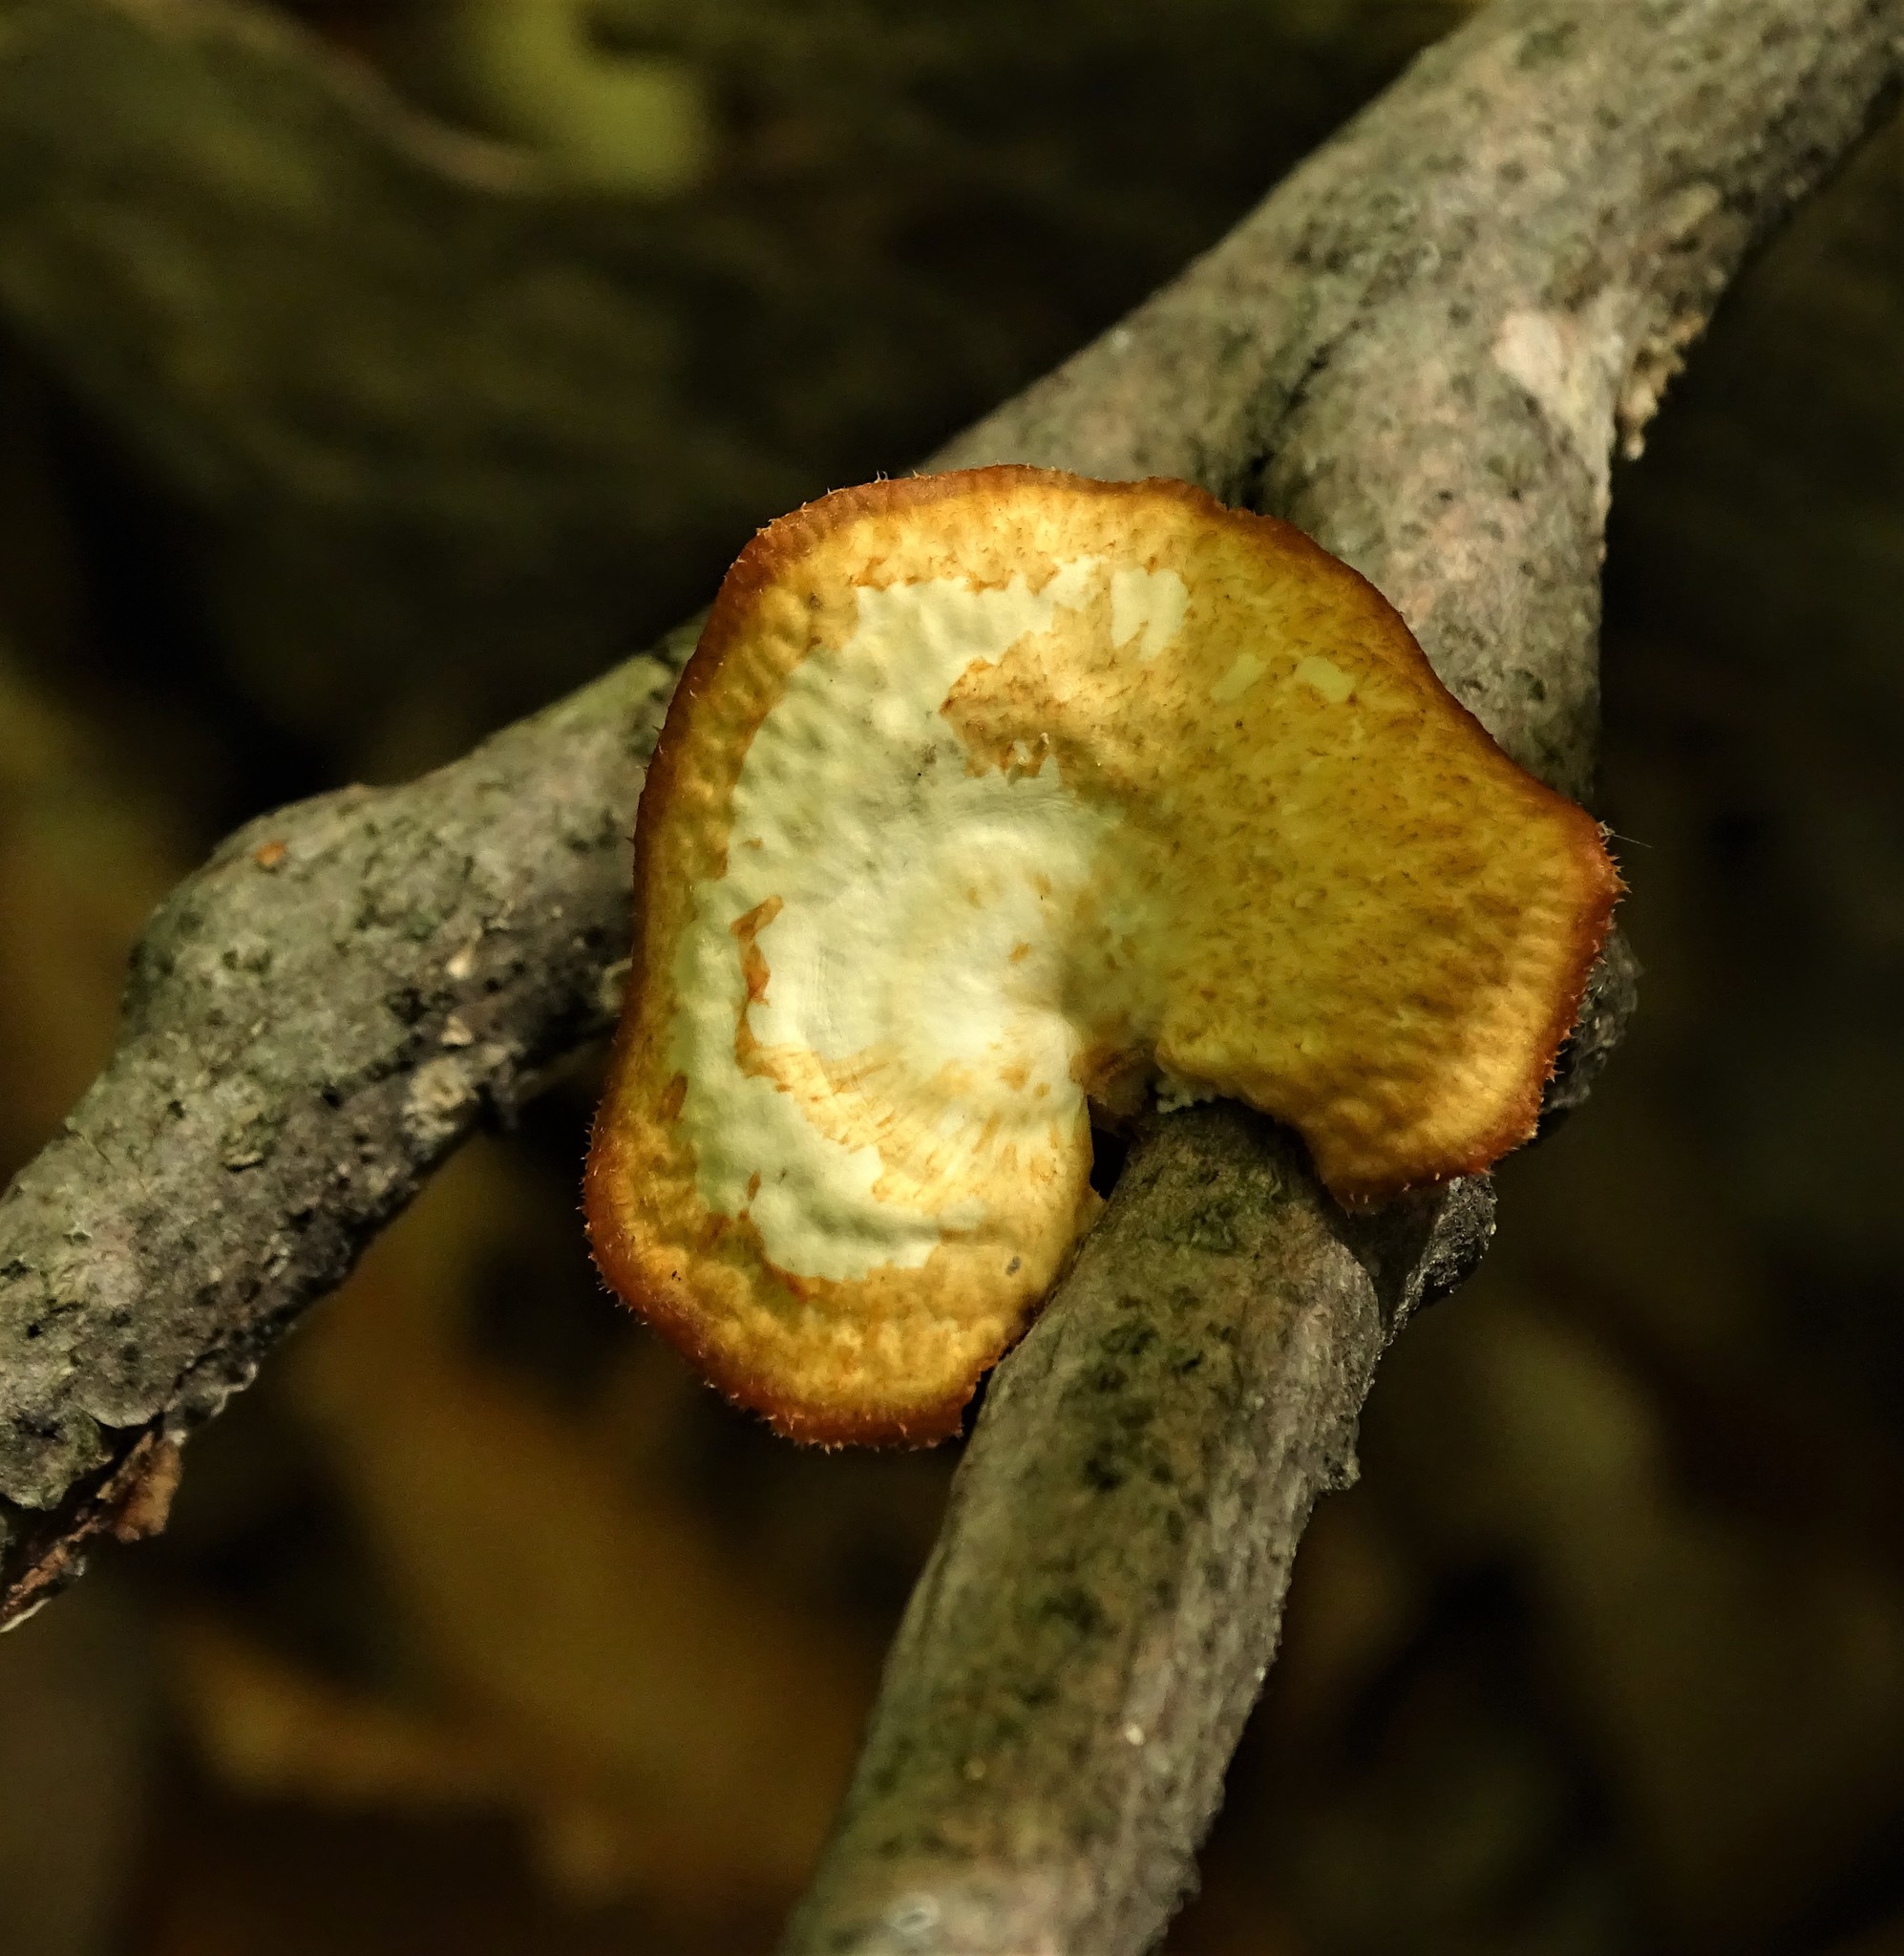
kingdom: Fungi
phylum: Basidiomycota
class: Agaricomycetes
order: Polyporales
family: Polyporaceae
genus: Neofavolus
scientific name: Neofavolus alveolaris
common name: Hexagonal-pored polypore
